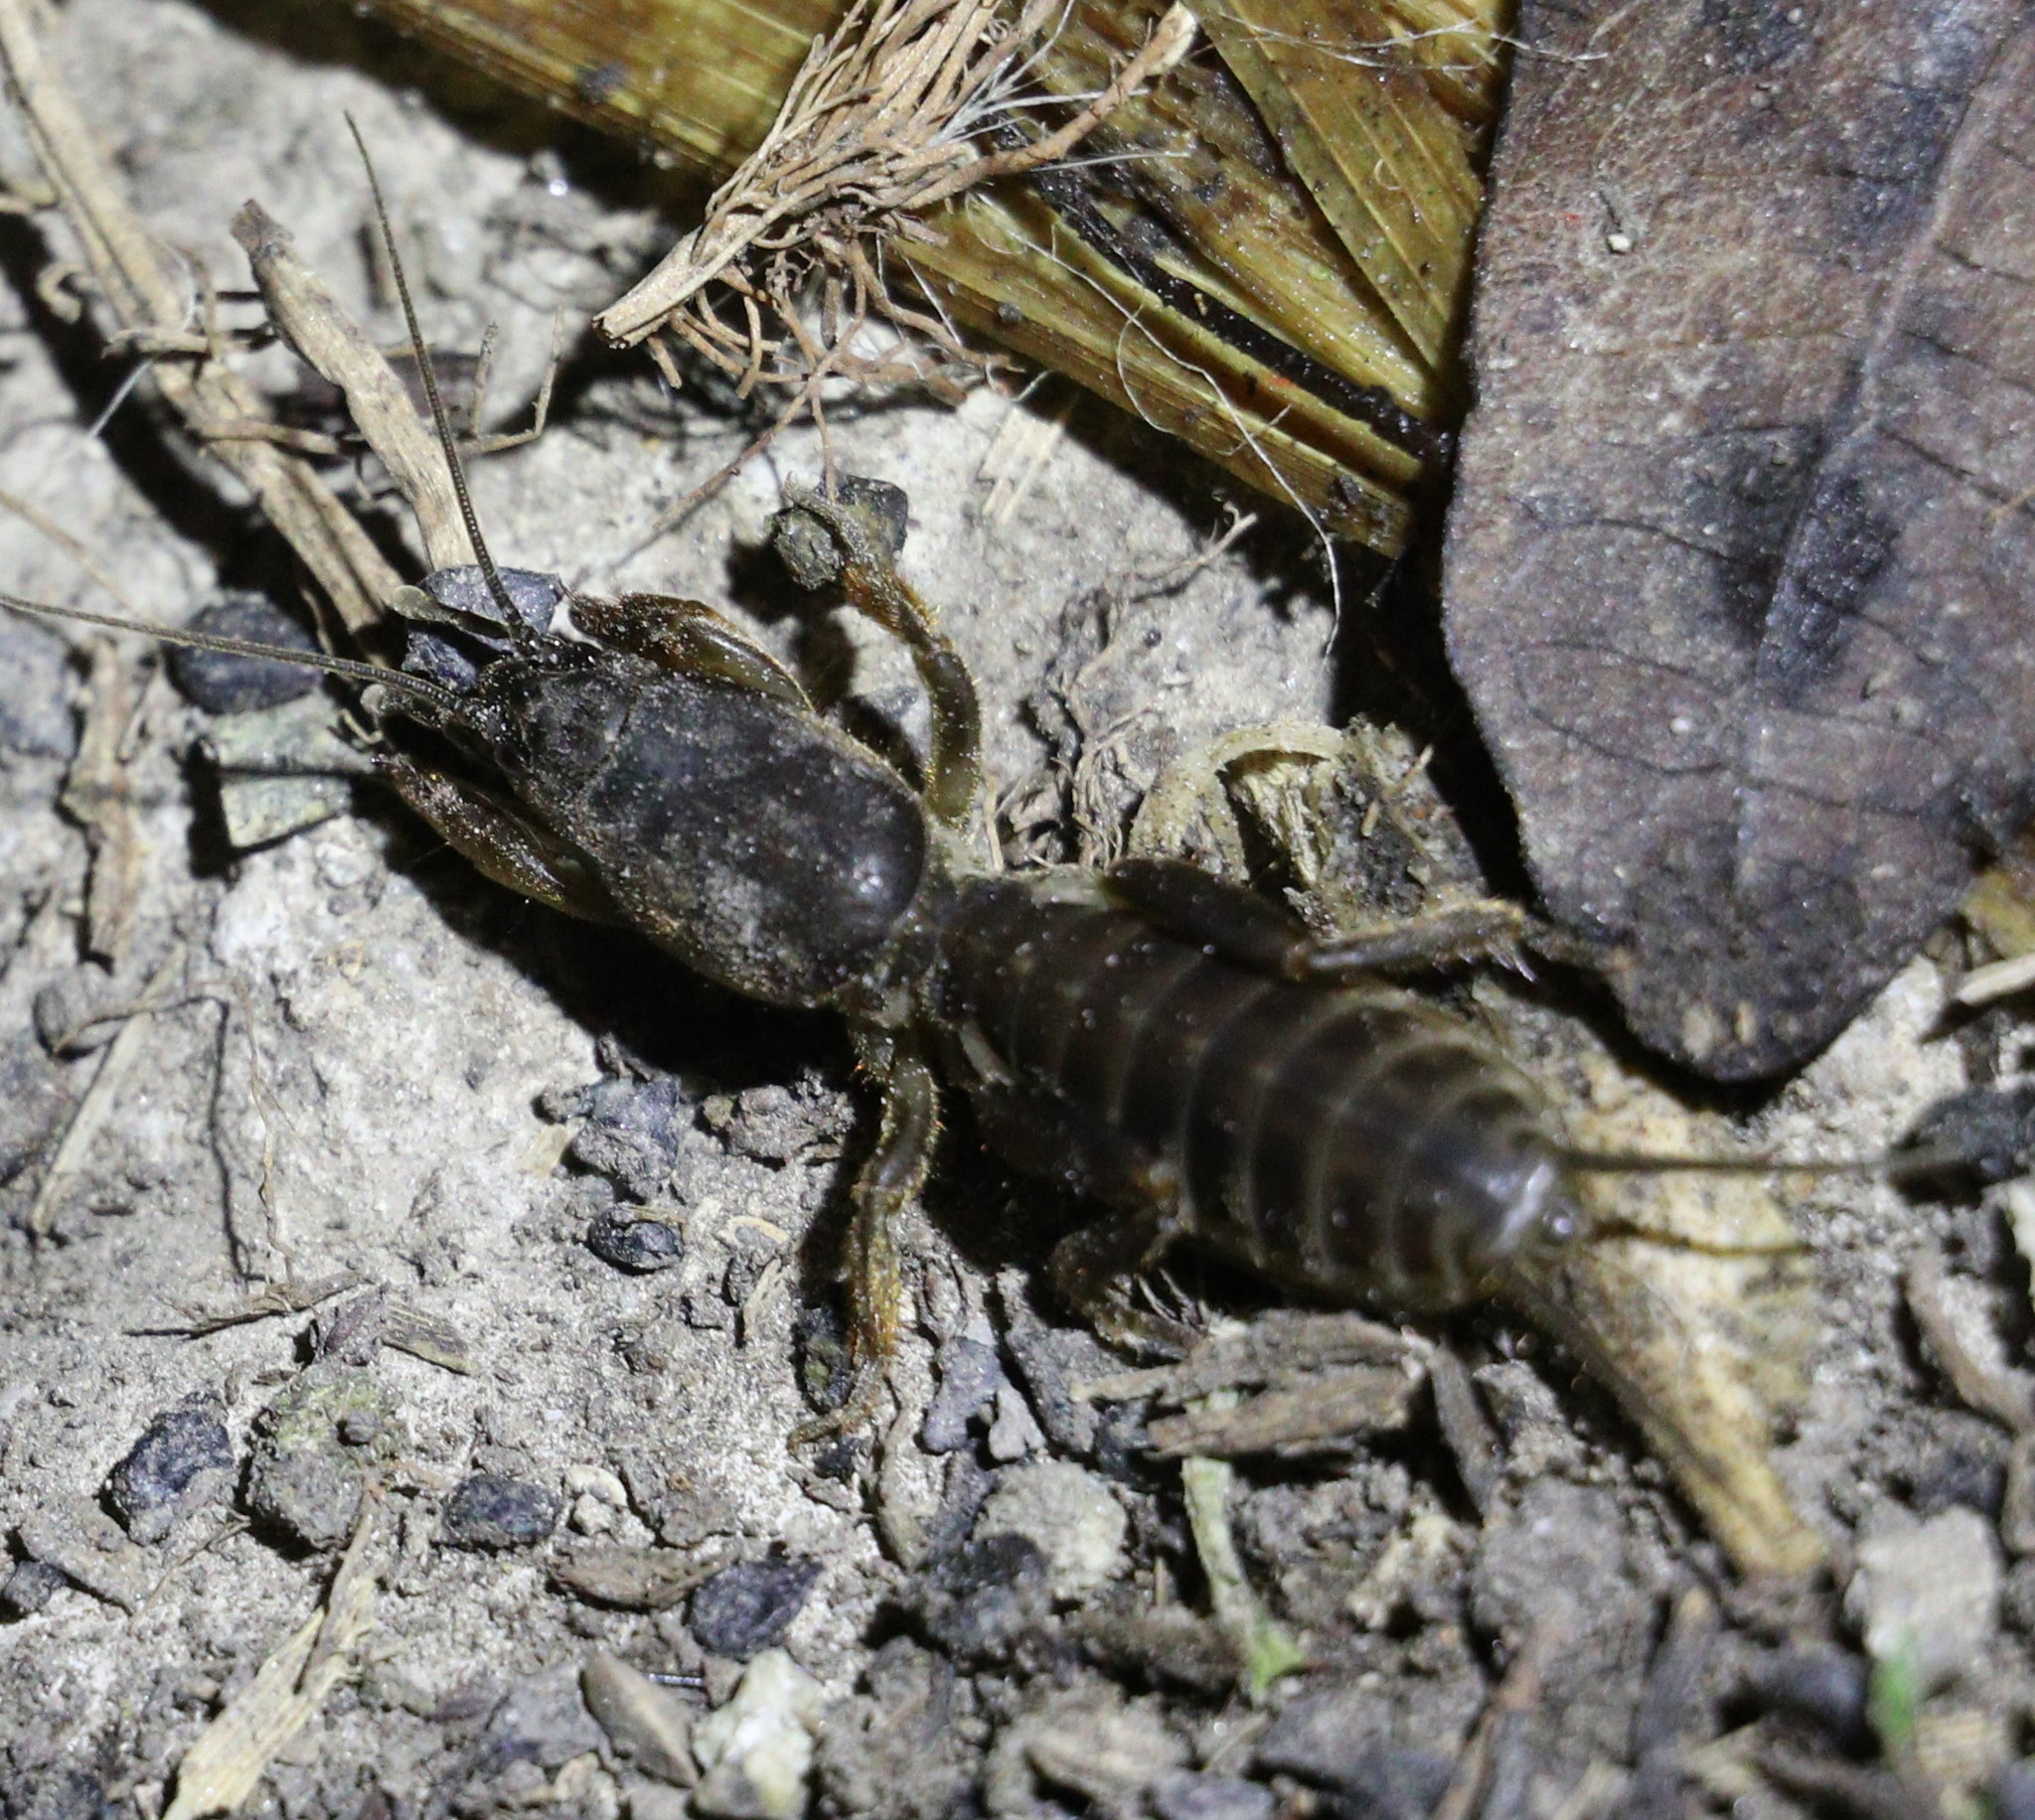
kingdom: Animalia
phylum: Arthropoda
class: Insecta
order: Orthoptera
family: Gryllotalpidae
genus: Gryllotalpa
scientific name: Gryllotalpa gryllotalpa
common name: European mole cricket
